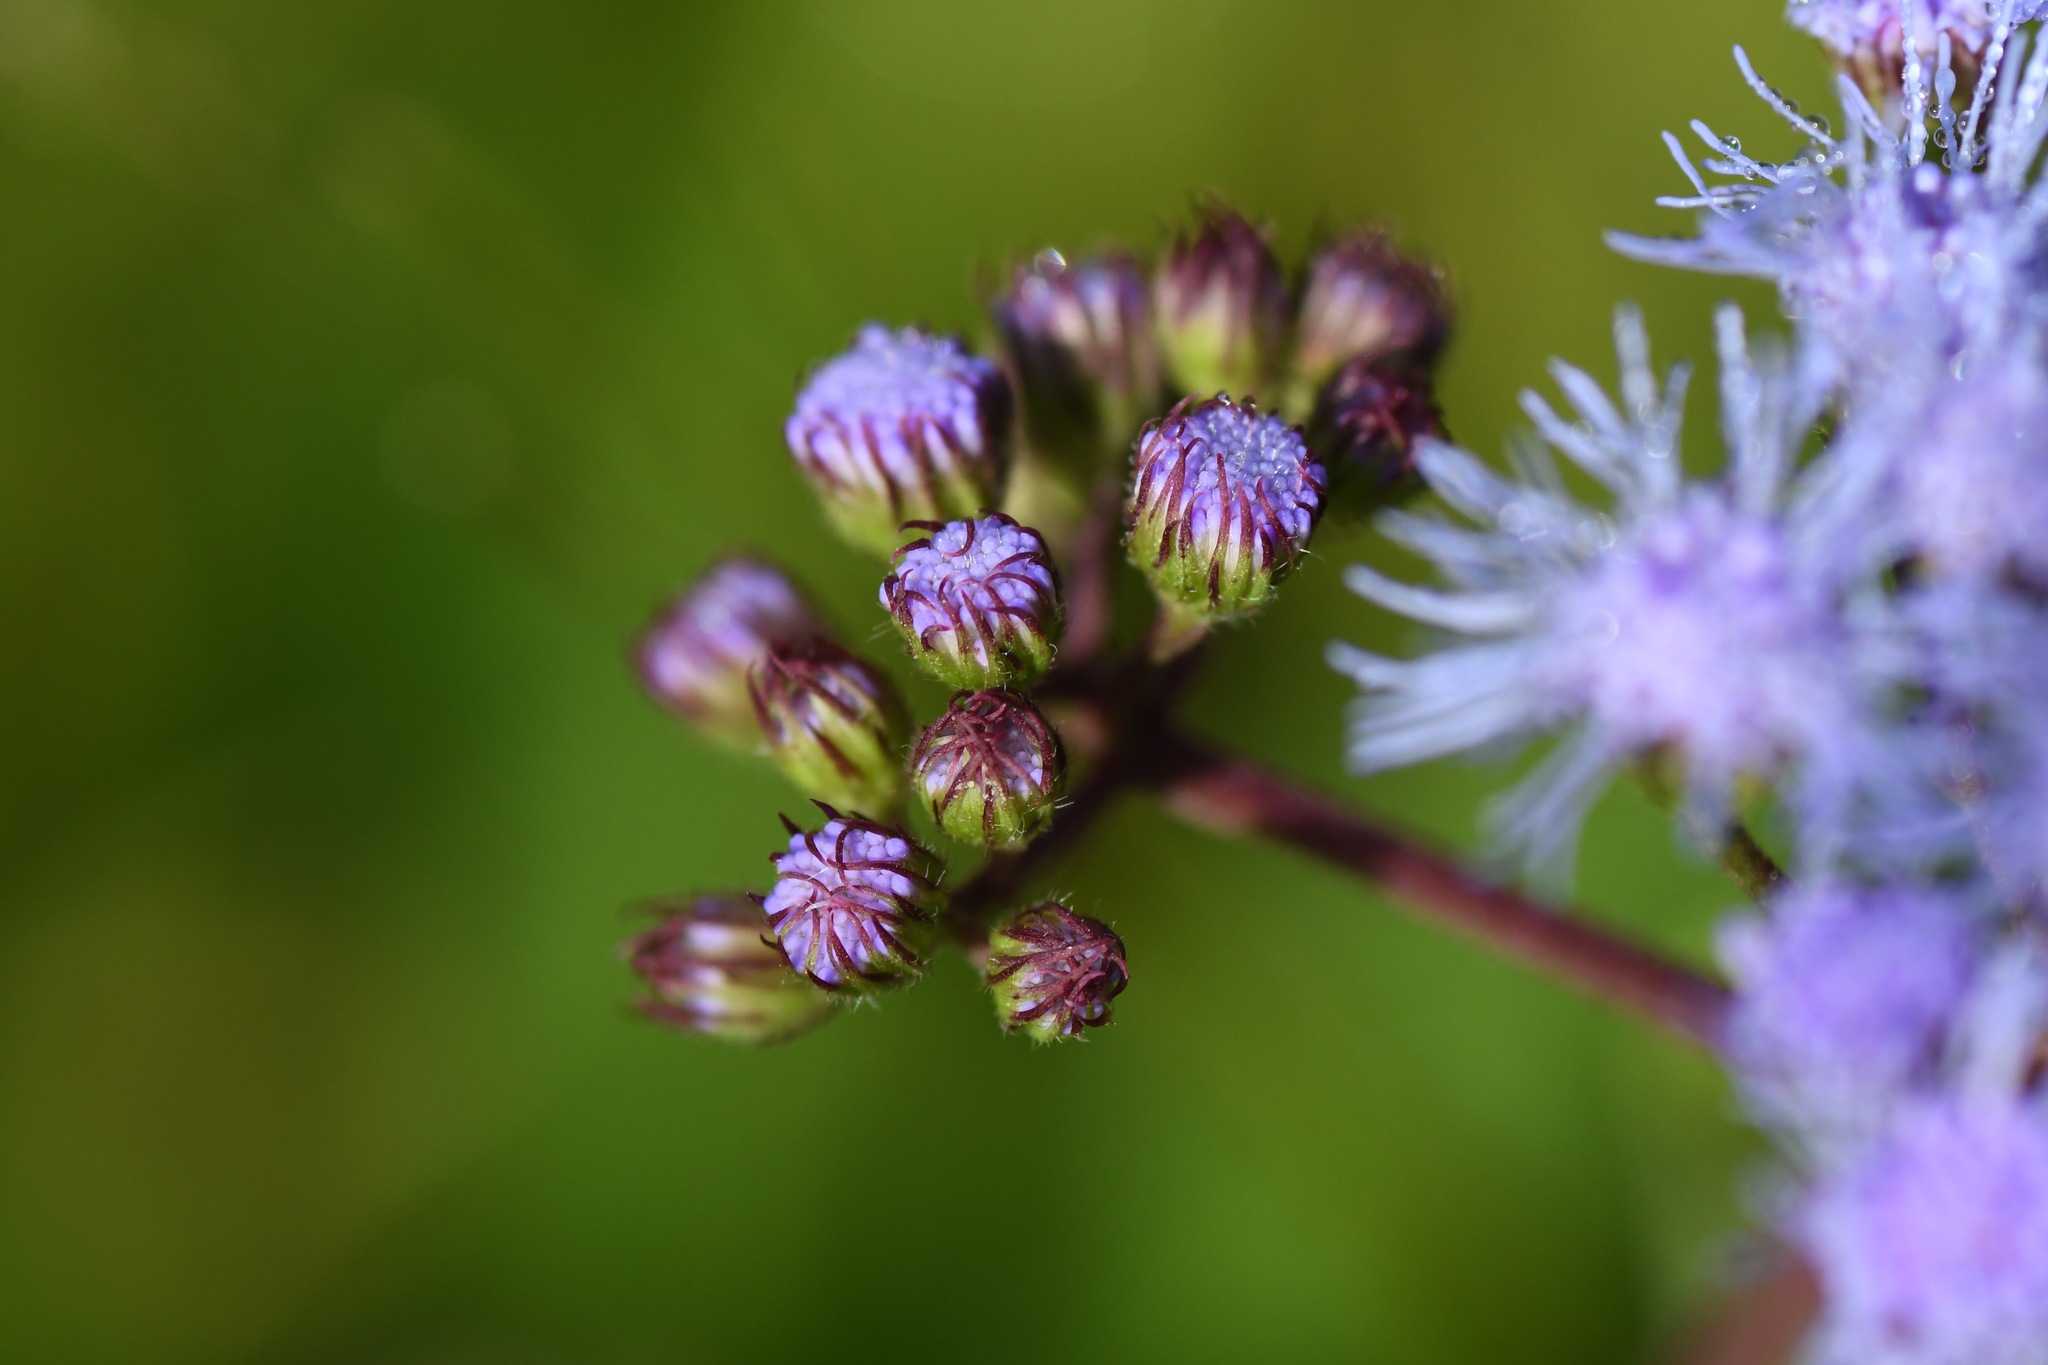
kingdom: Plantae
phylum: Tracheophyta
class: Magnoliopsida
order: Asterales
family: Asteraceae
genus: Conoclinium
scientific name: Conoclinium coelestinum
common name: Blue mistflower
